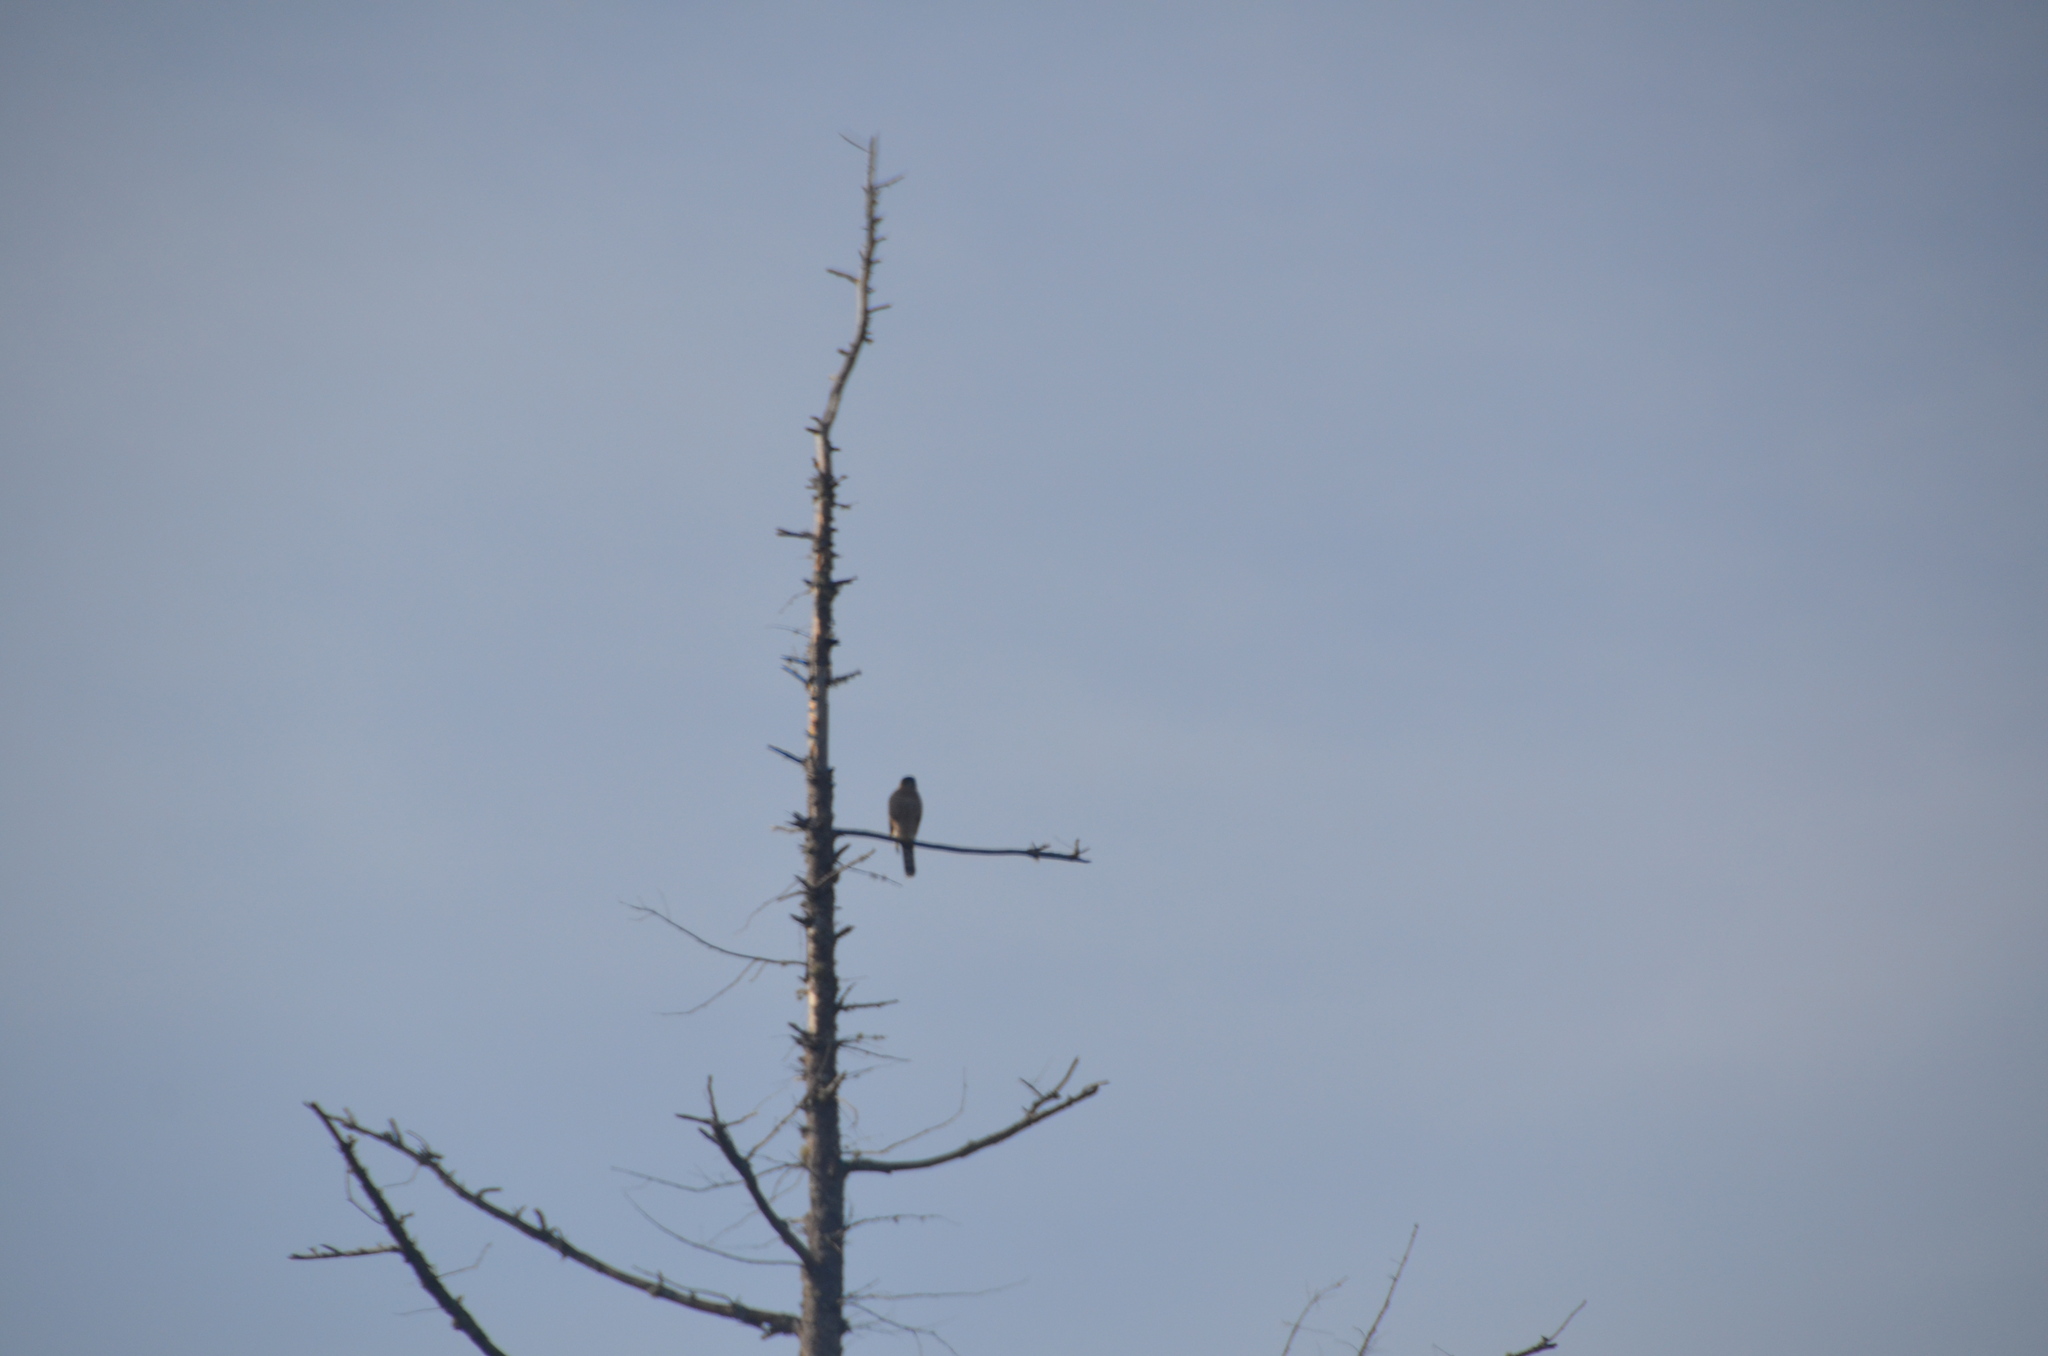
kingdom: Animalia
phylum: Chordata
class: Aves
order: Accipitriformes
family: Accipitridae
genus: Accipiter
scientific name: Accipiter cooperii
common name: Cooper's hawk
